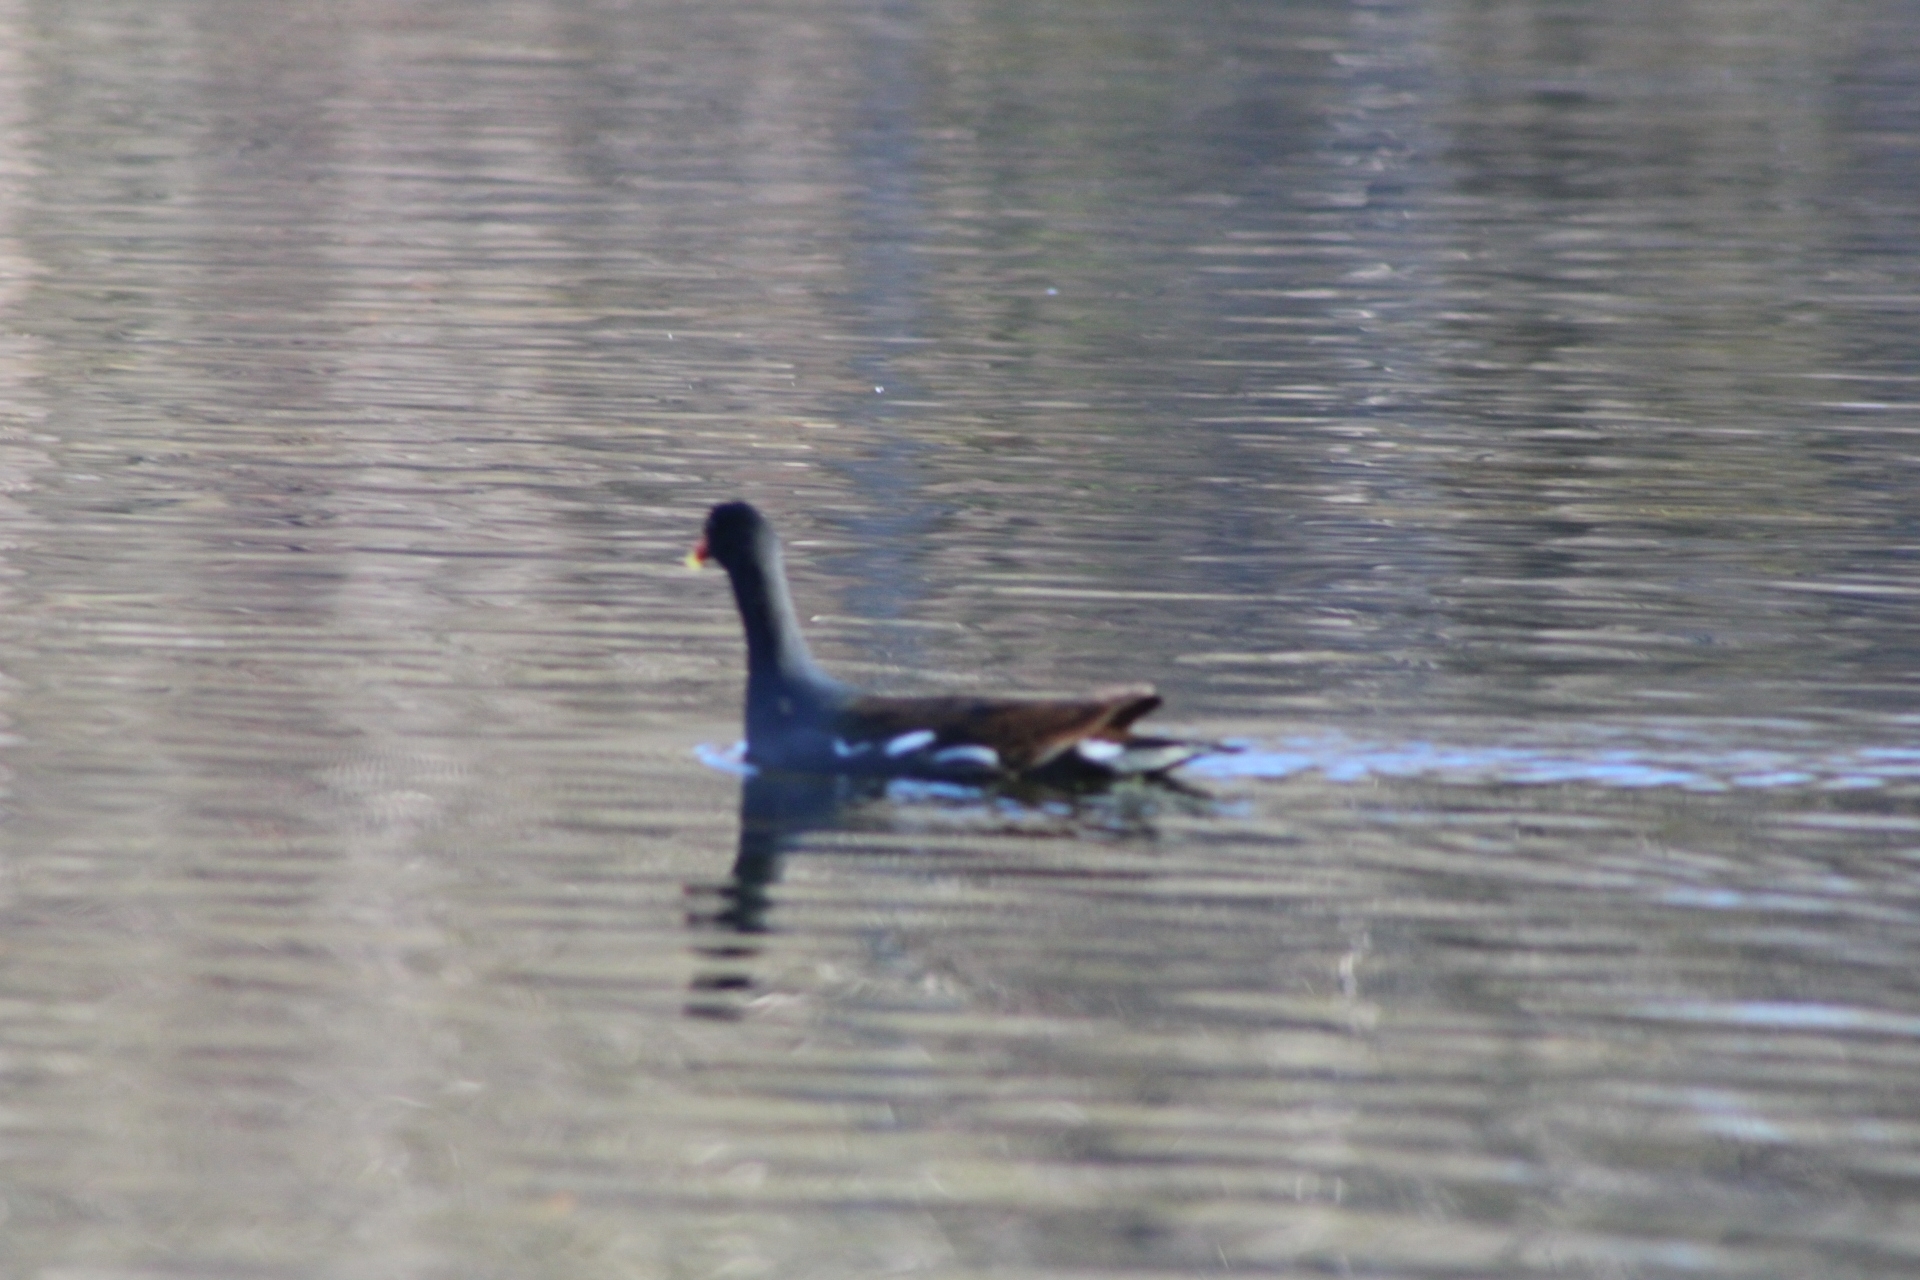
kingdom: Animalia
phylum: Chordata
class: Aves
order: Gruiformes
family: Rallidae
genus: Gallinula
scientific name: Gallinula chloropus
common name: Common moorhen
